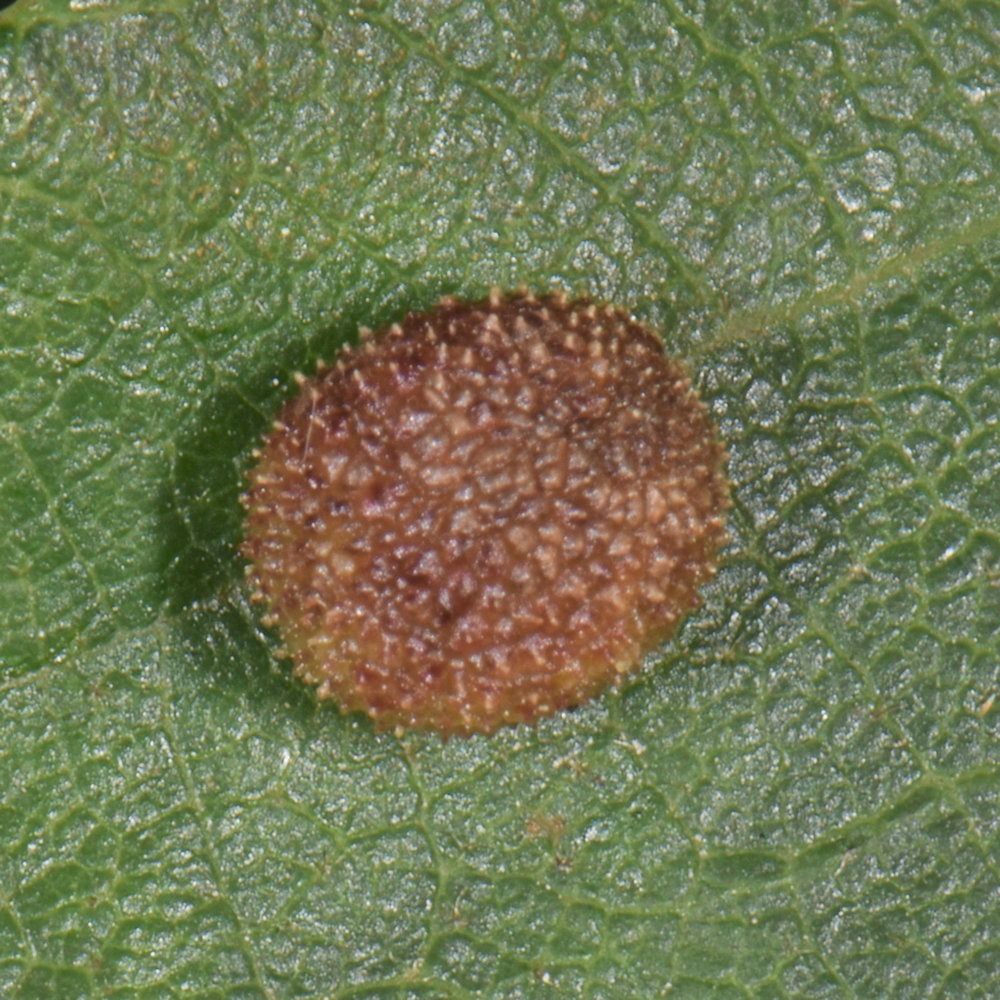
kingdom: Animalia
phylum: Arthropoda
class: Insecta
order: Hymenoptera
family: Cynipidae
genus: Acraspis
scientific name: Acraspis quercushirta
